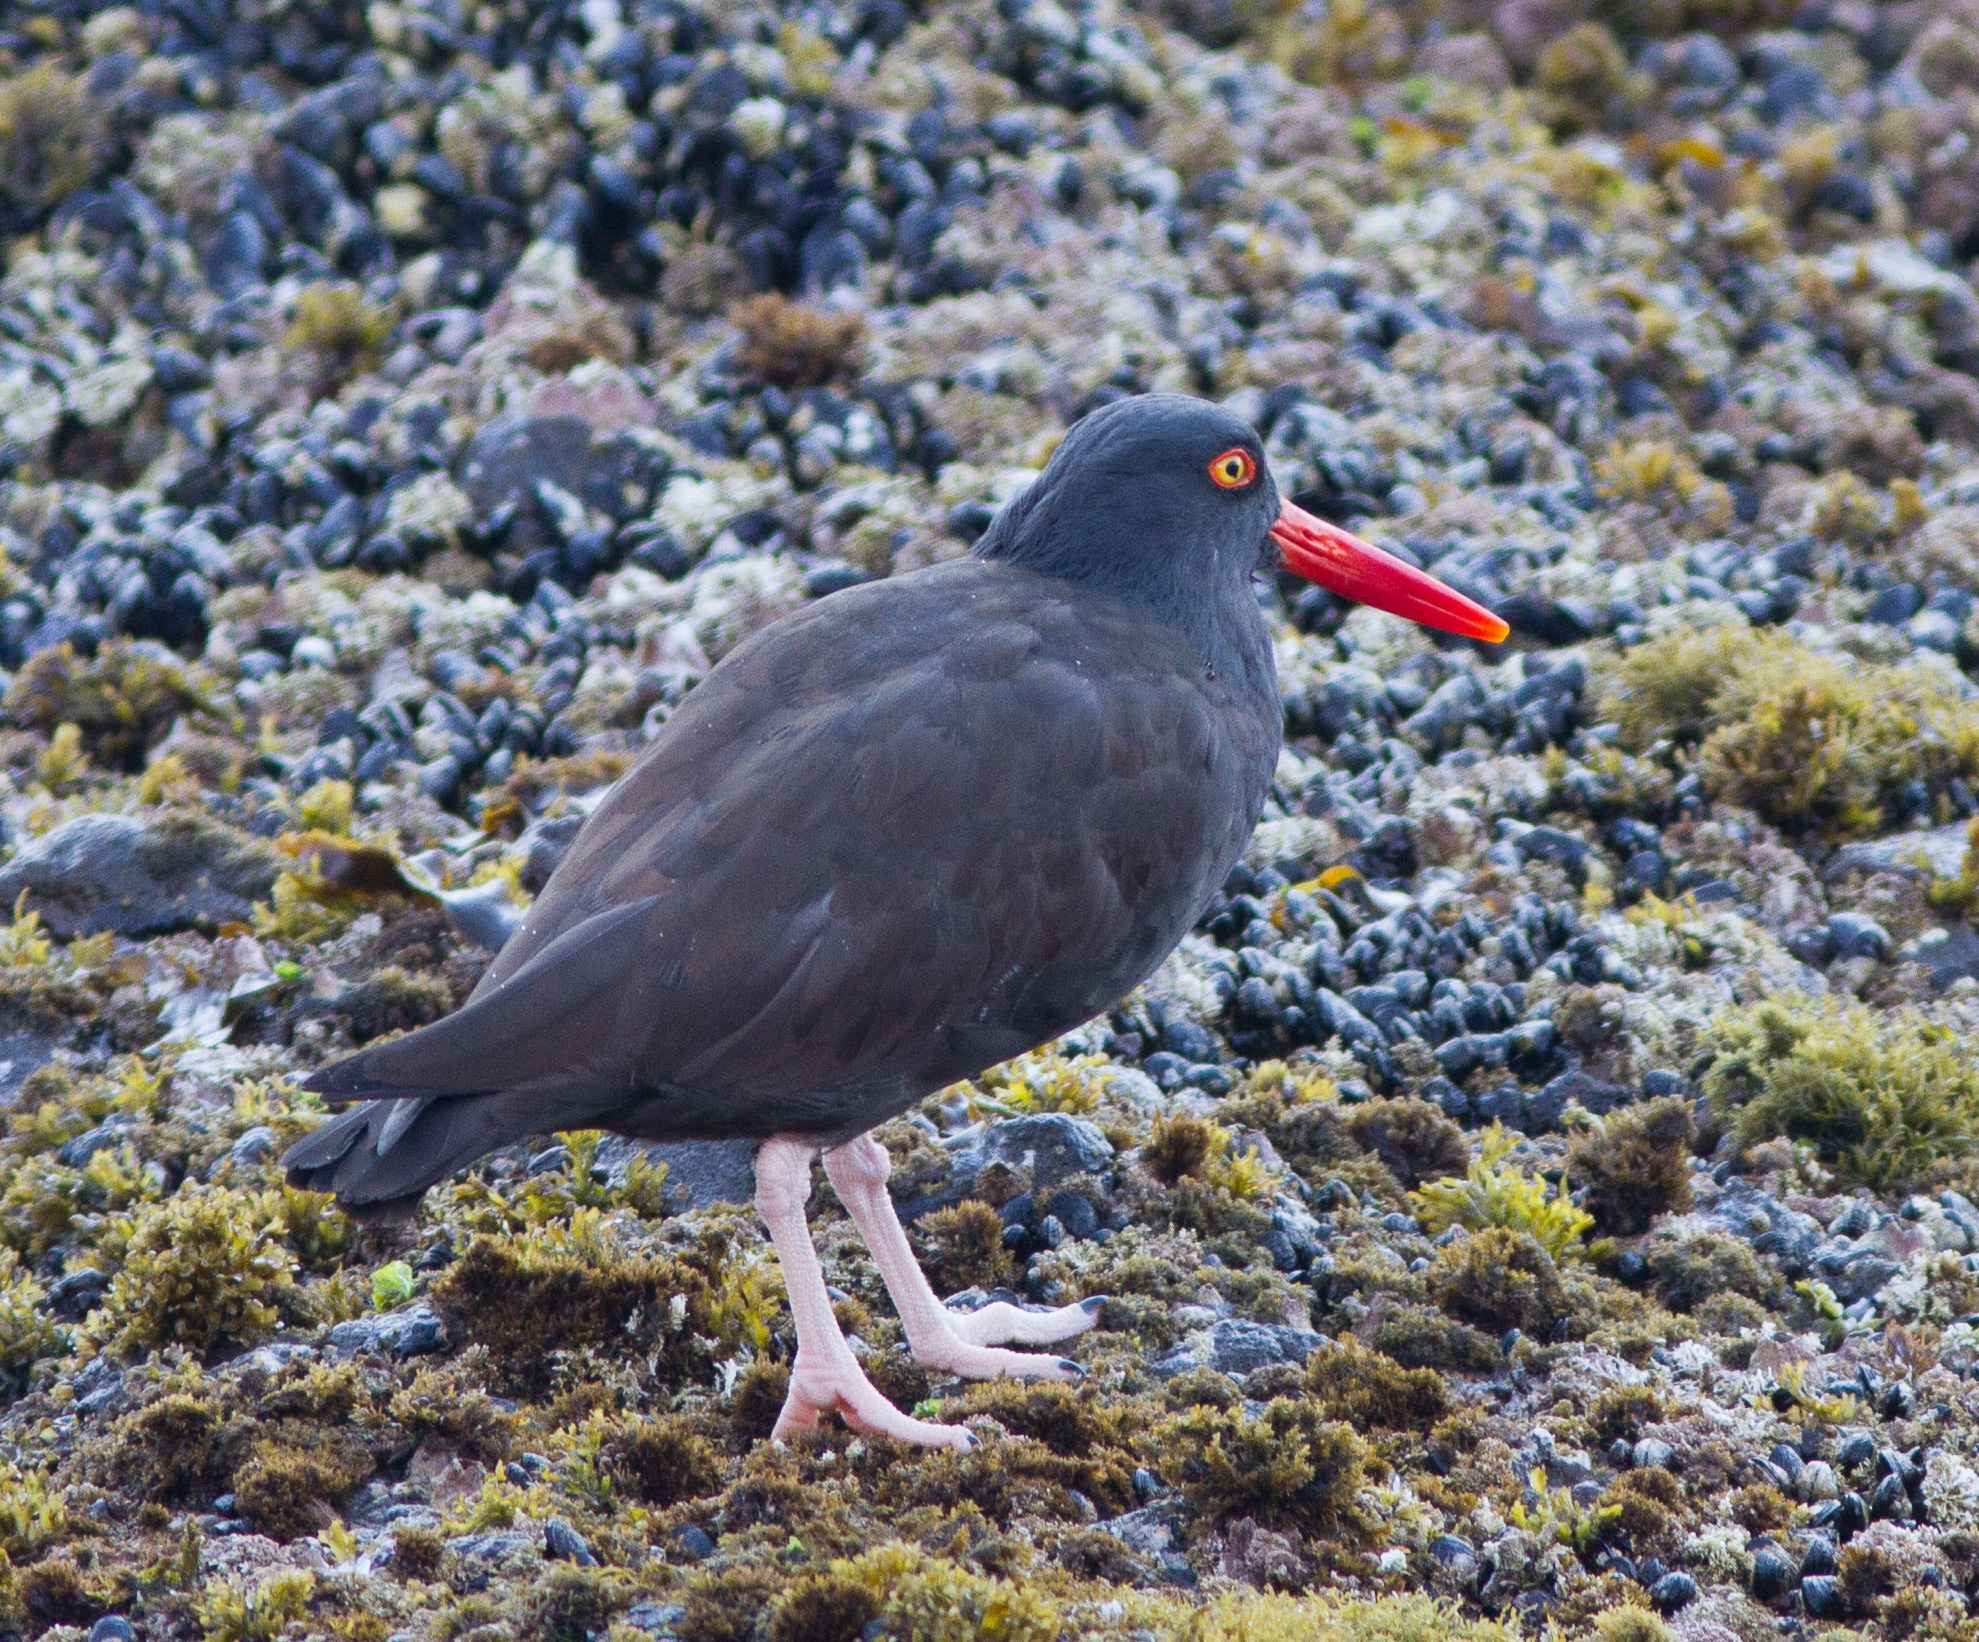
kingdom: Animalia
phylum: Chordata
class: Aves
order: Charadriiformes
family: Haematopodidae
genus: Haematopus
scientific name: Haematopus bachmani
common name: Black oystercatcher
